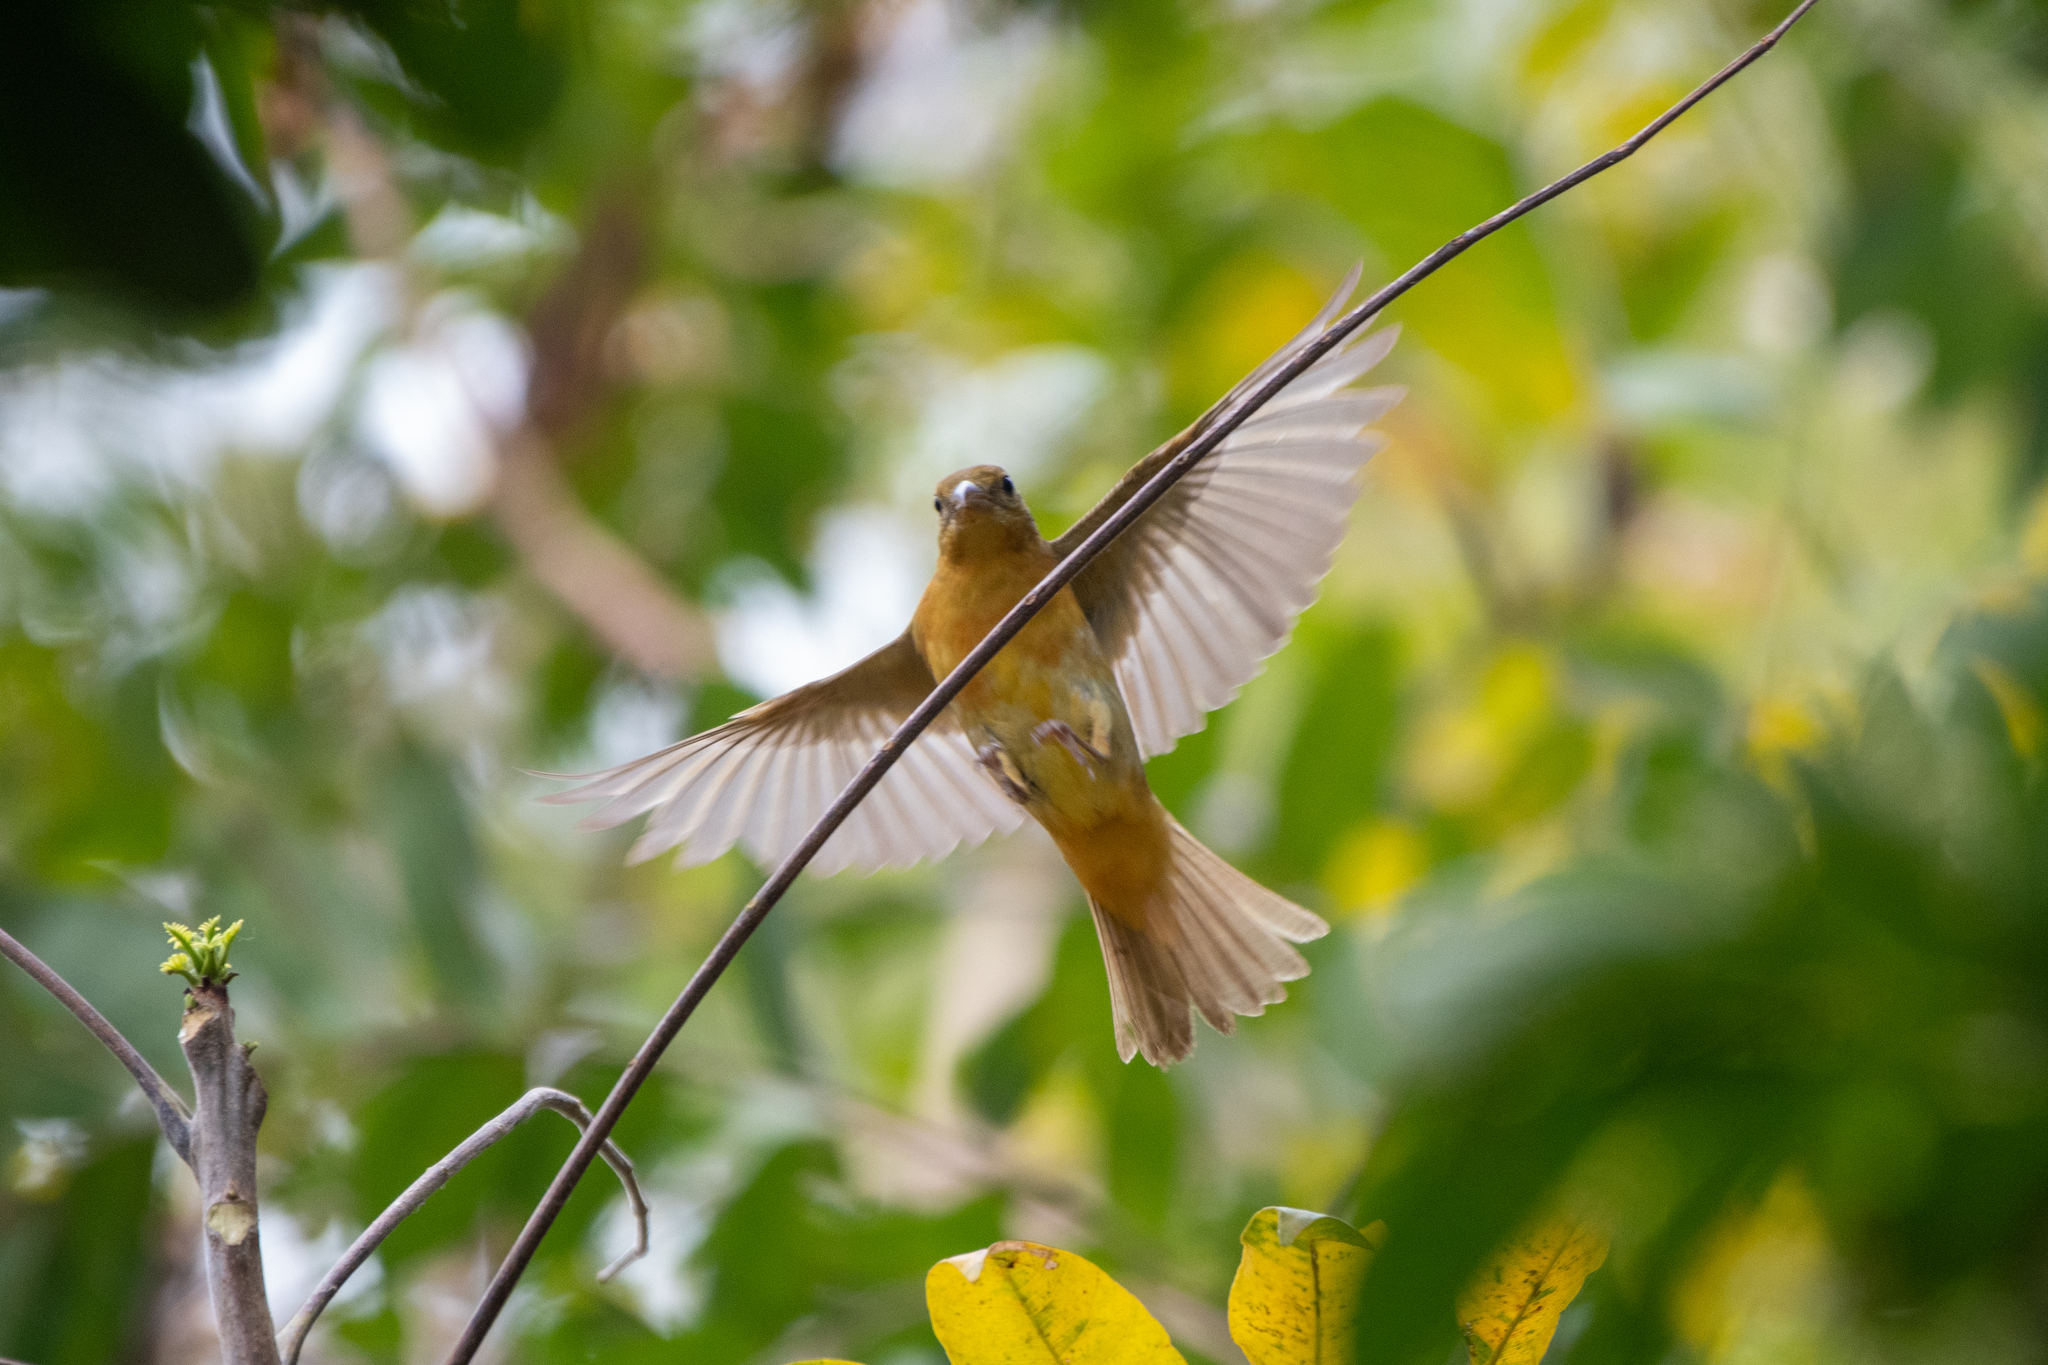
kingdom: Animalia
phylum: Chordata
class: Aves
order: Passeriformes
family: Cardinalidae
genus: Piranga
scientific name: Piranga rubra
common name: Summer tanager
